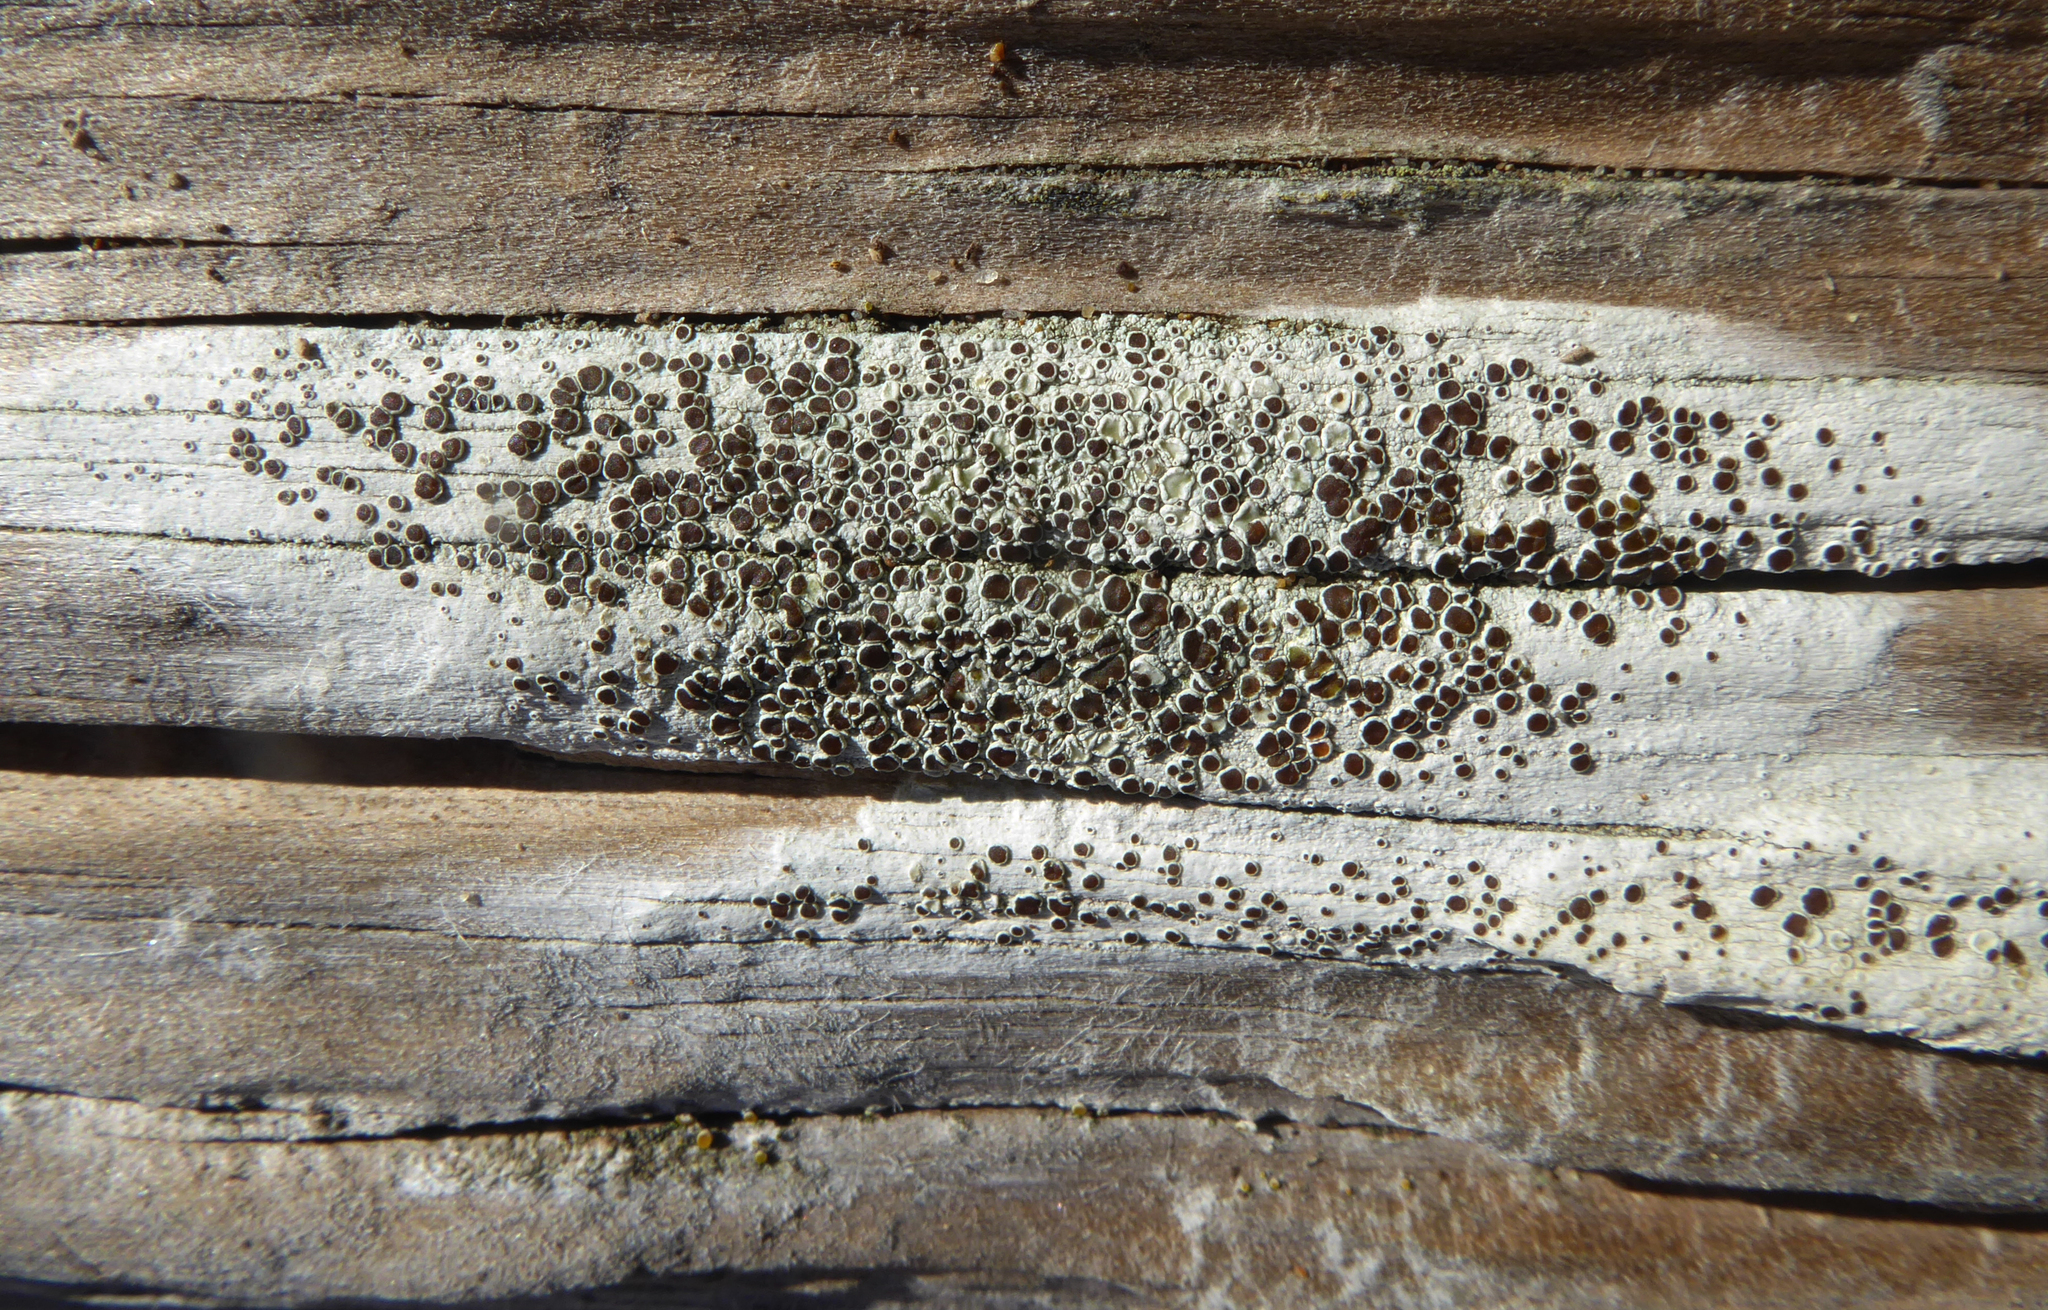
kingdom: Fungi
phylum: Ascomycota
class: Lecanoromycetes
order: Lecanorales
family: Lecanoraceae
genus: Lecanora
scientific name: Lecanora xylophila
